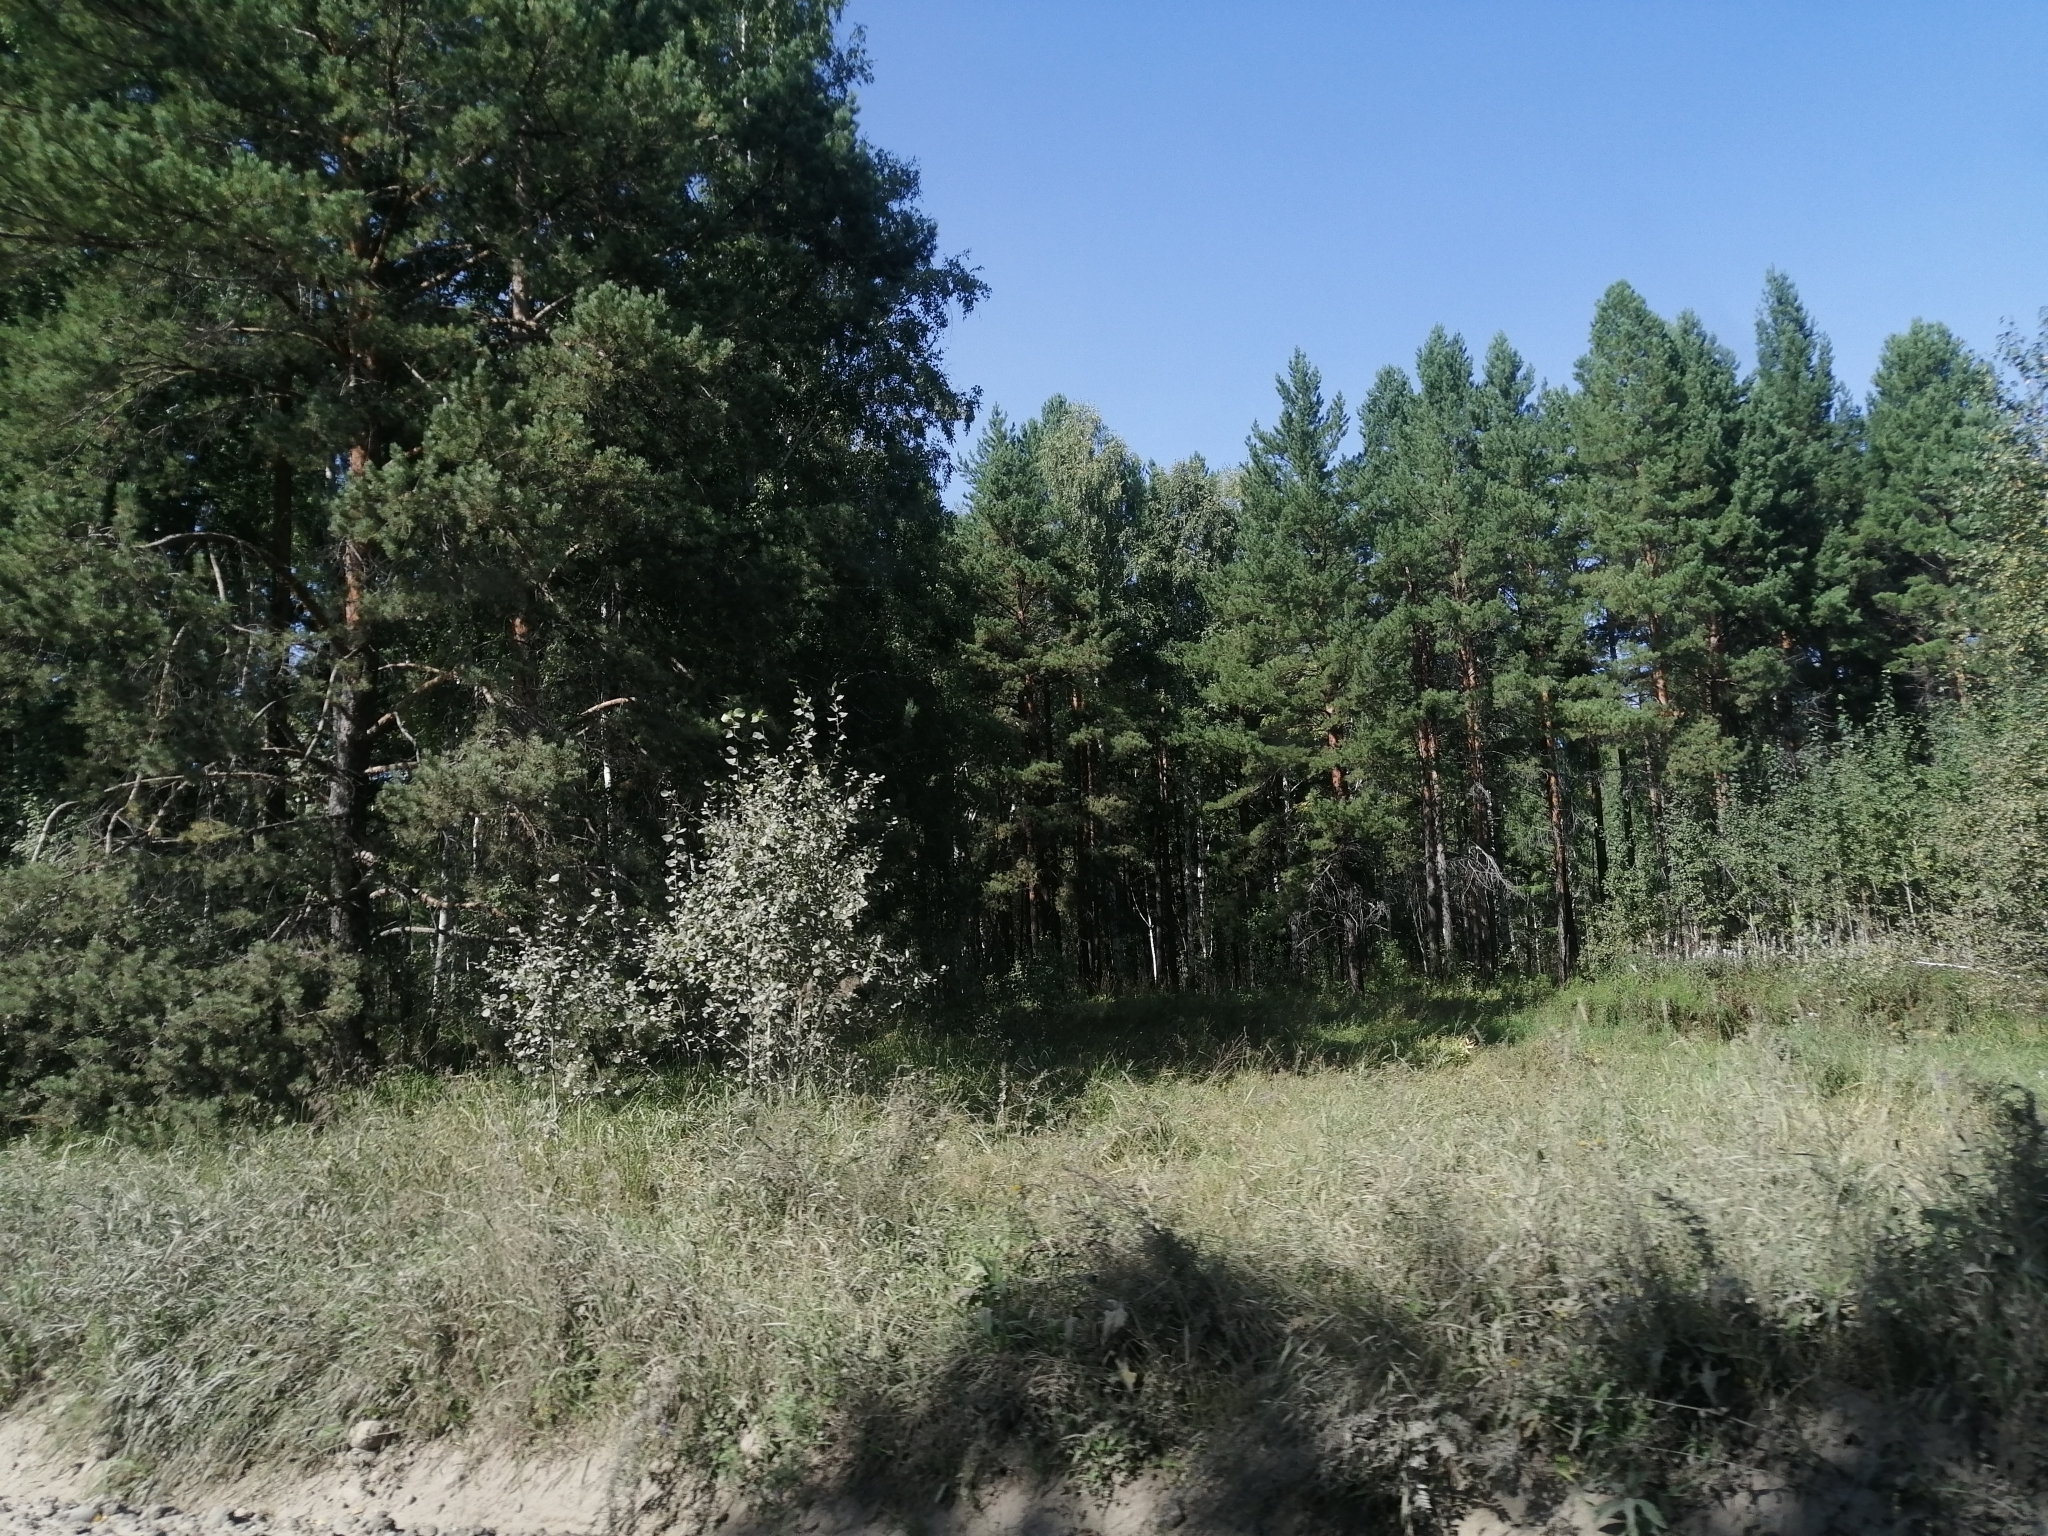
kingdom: Plantae
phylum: Tracheophyta
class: Pinopsida
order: Pinales
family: Pinaceae
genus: Pinus
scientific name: Pinus sylvestris
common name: Scots pine
